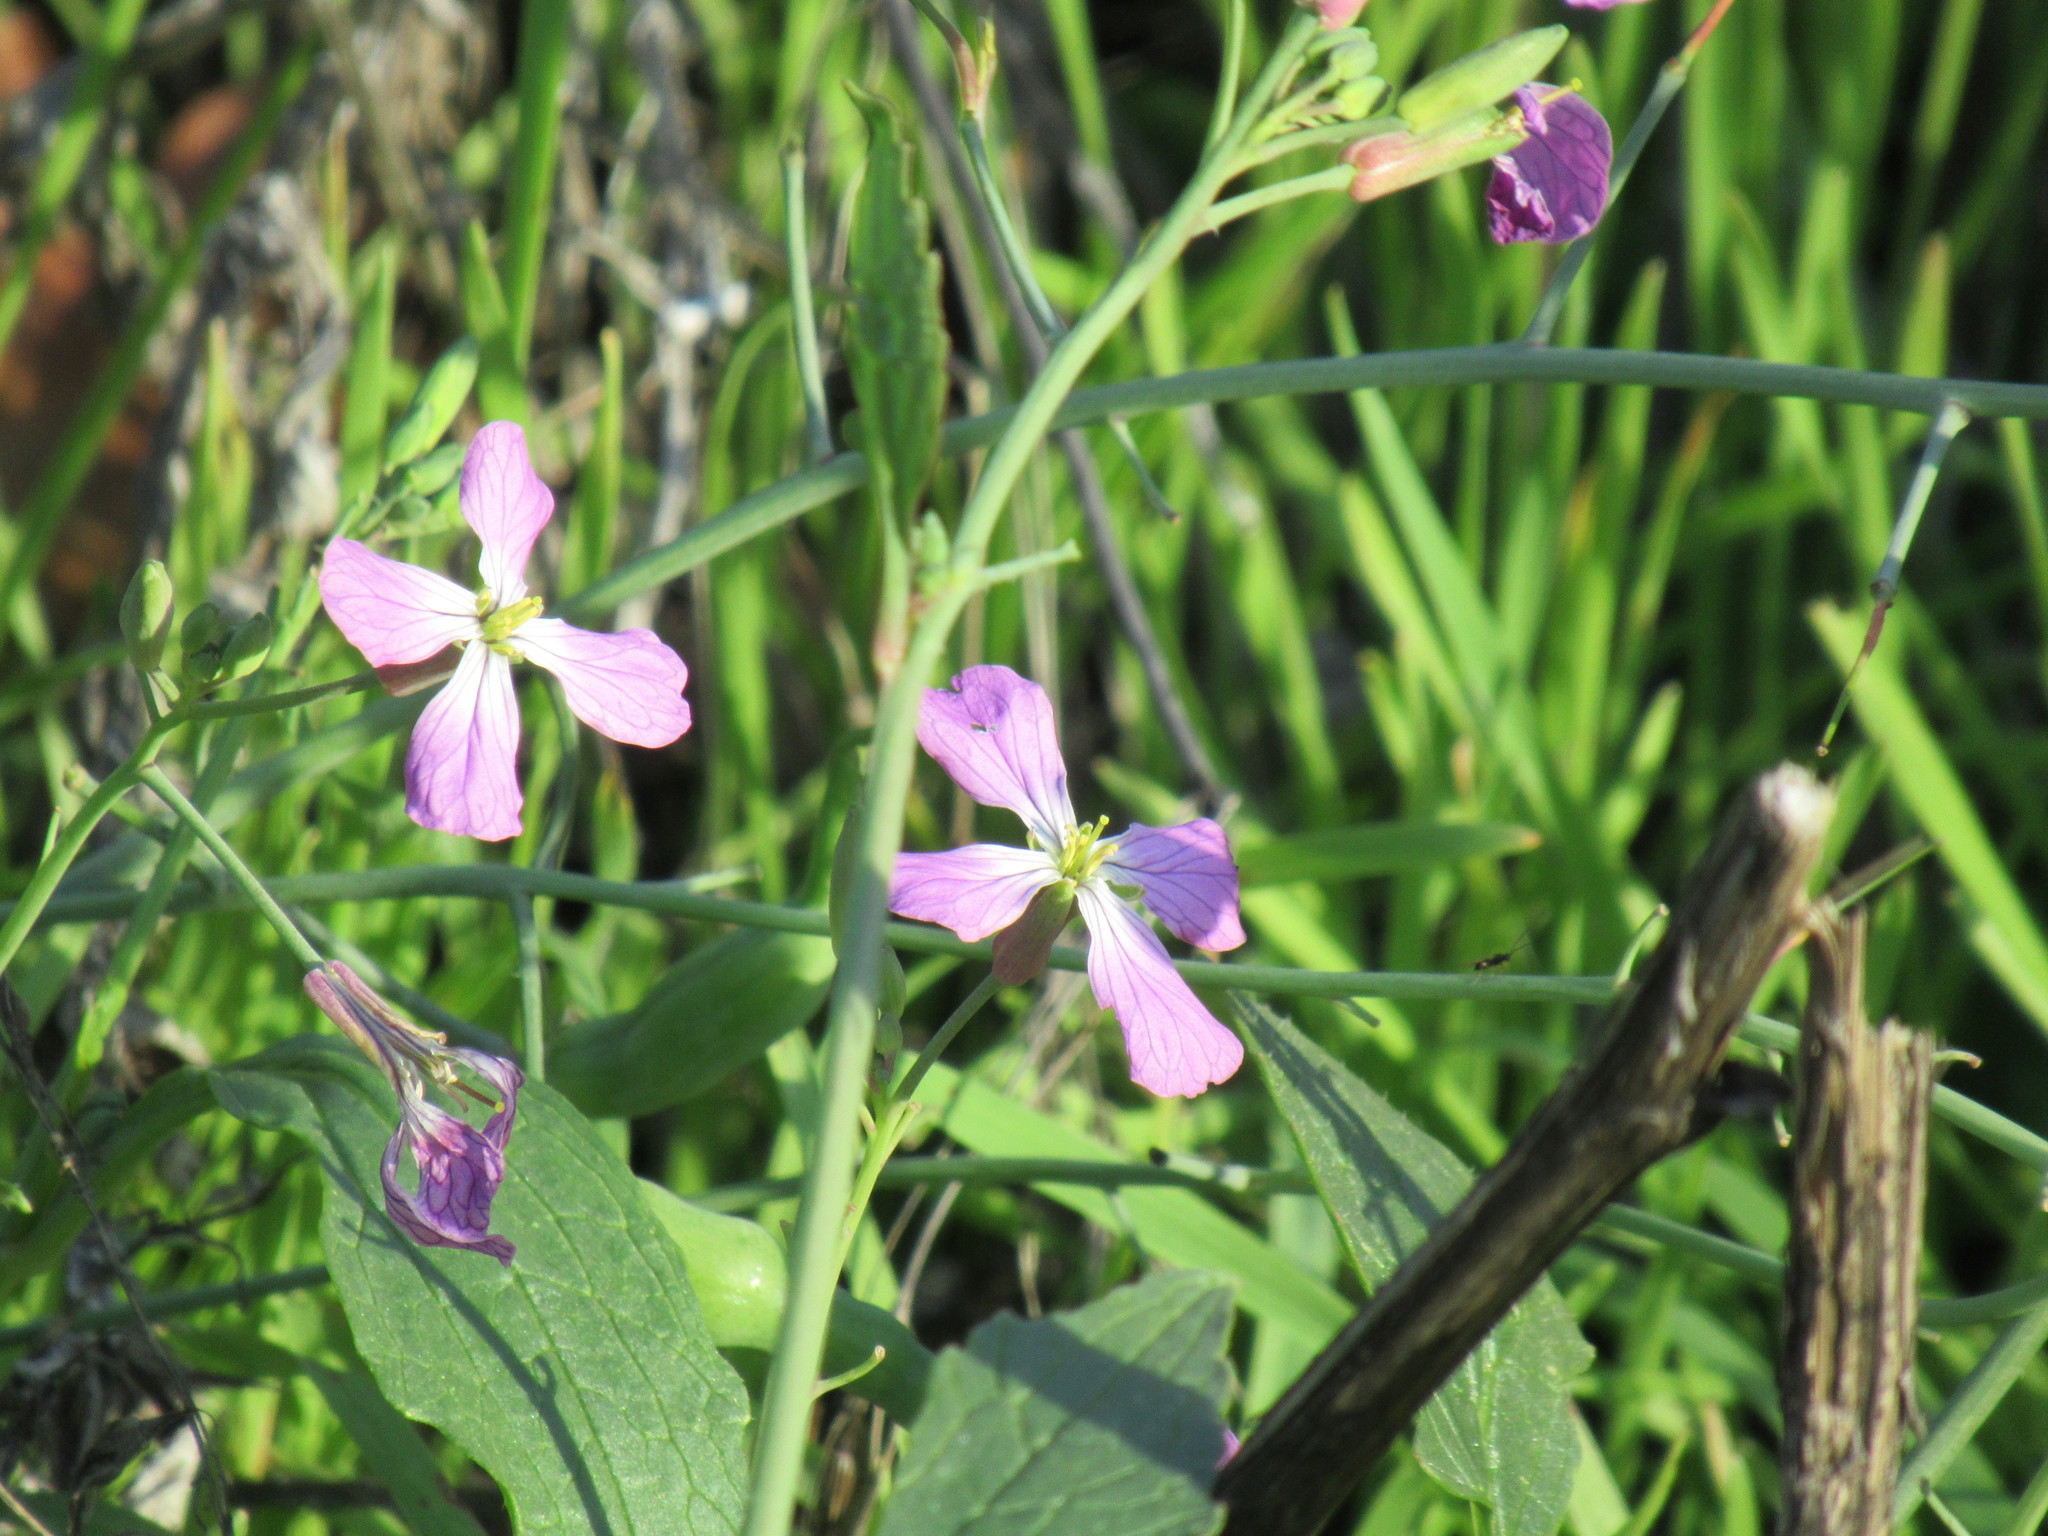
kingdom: Plantae
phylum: Tracheophyta
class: Magnoliopsida
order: Brassicales
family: Brassicaceae
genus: Raphanus
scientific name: Raphanus sativus
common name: Cultivated radish
